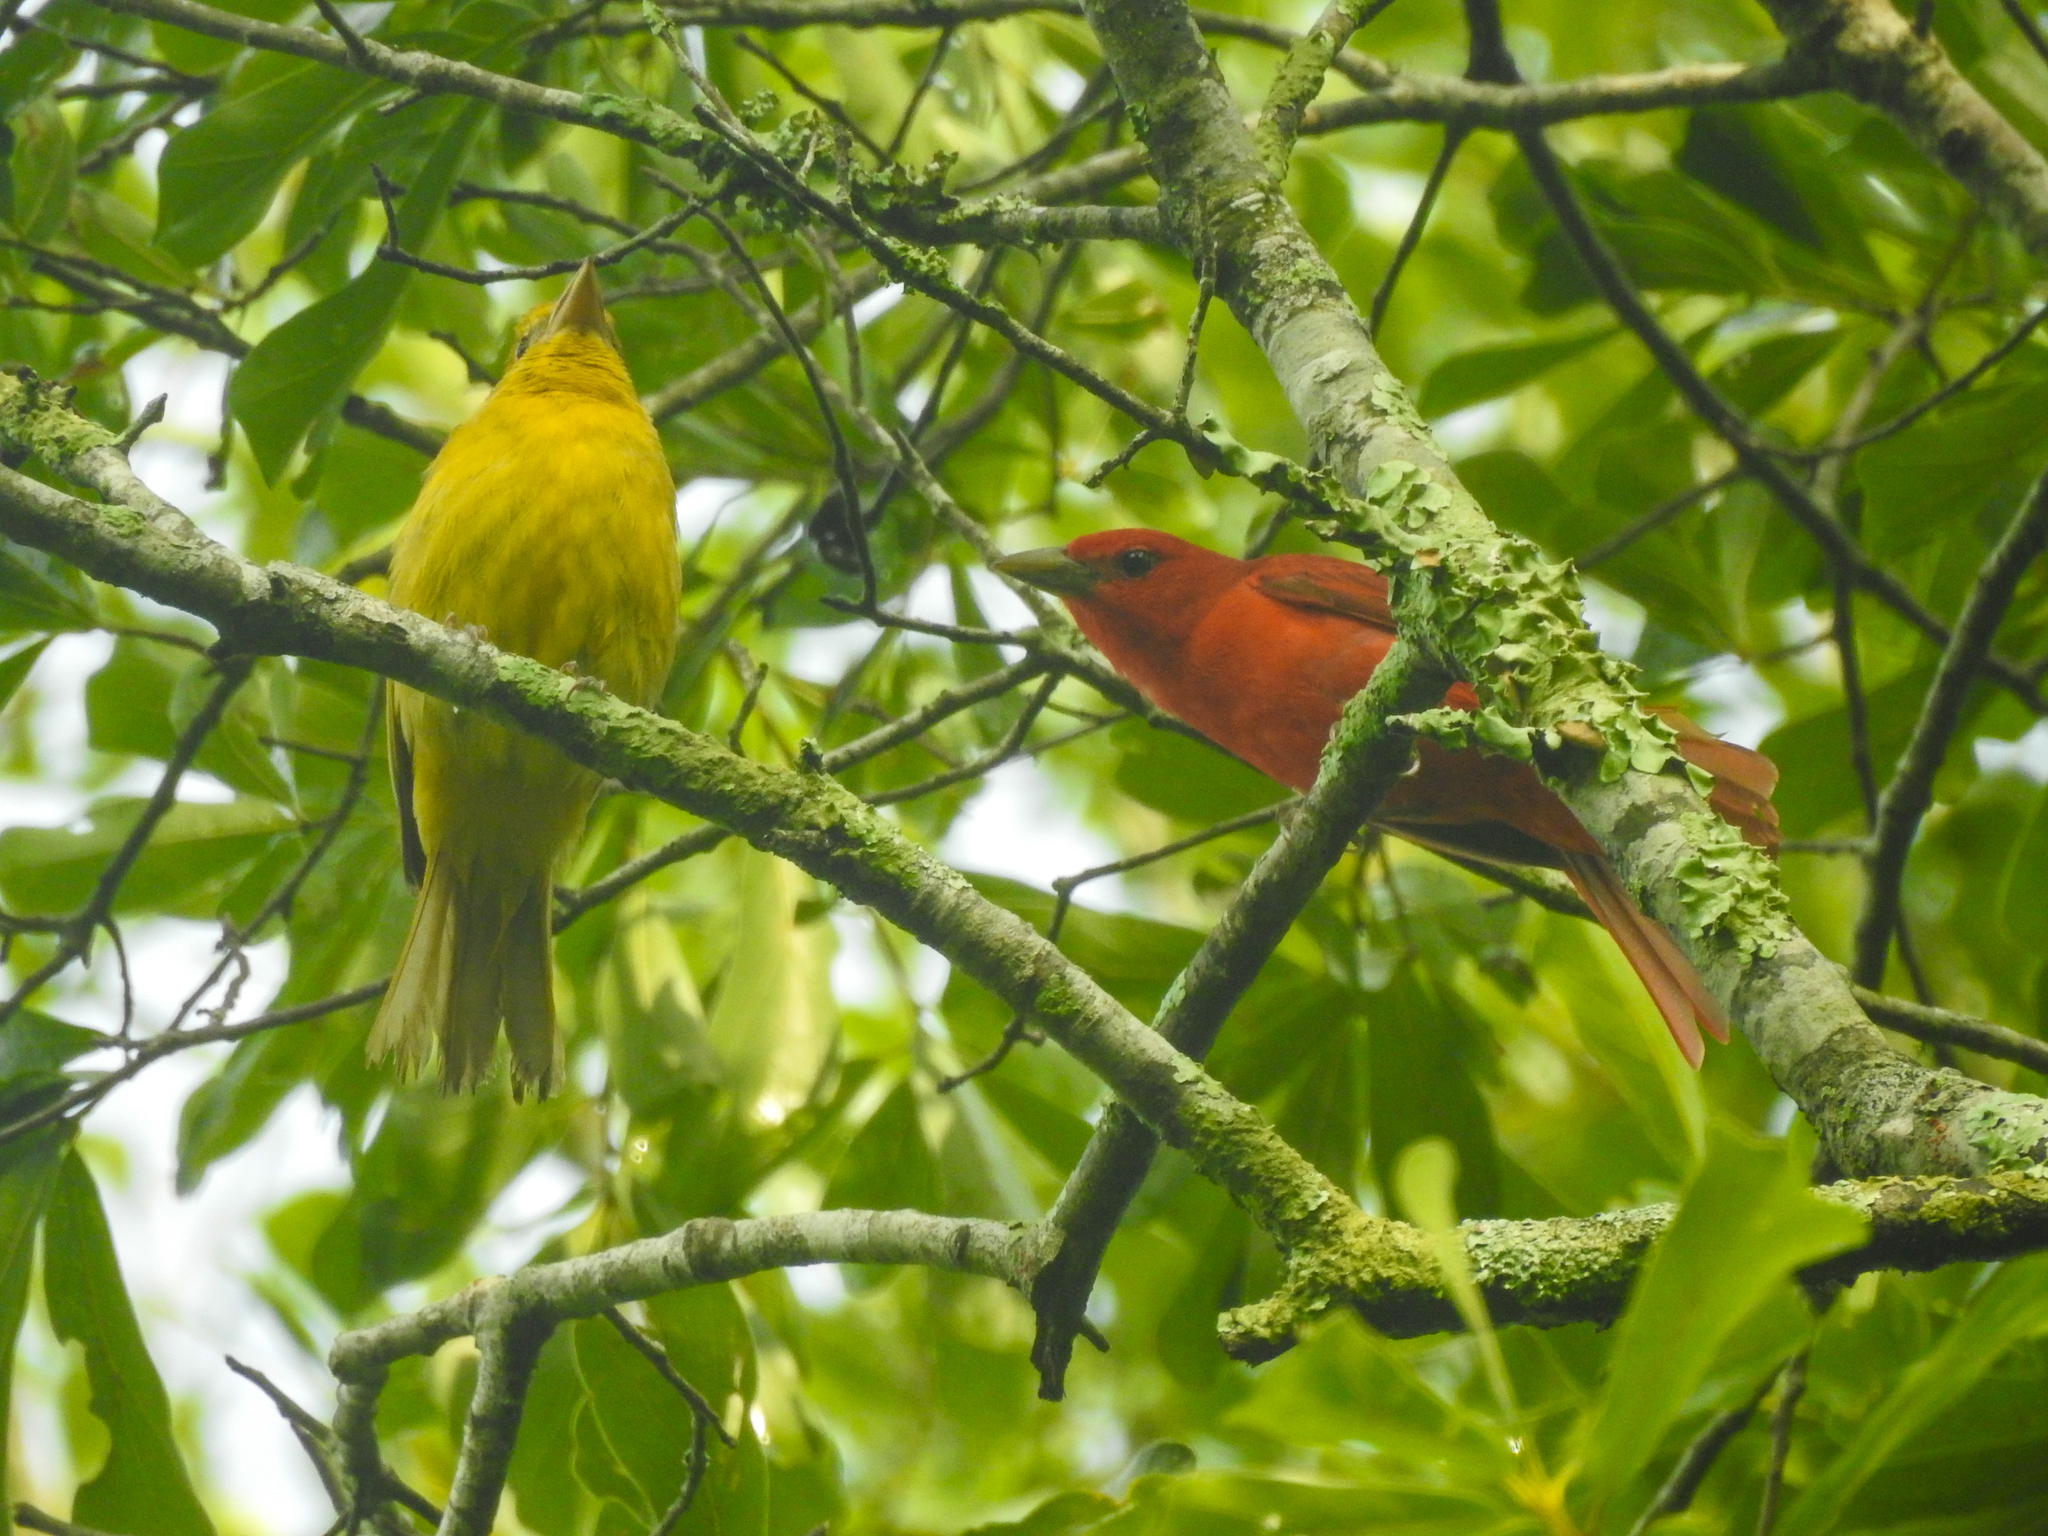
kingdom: Animalia
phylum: Chordata
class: Aves
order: Passeriformes
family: Cardinalidae
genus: Piranga
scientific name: Piranga rubra
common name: Summer tanager
